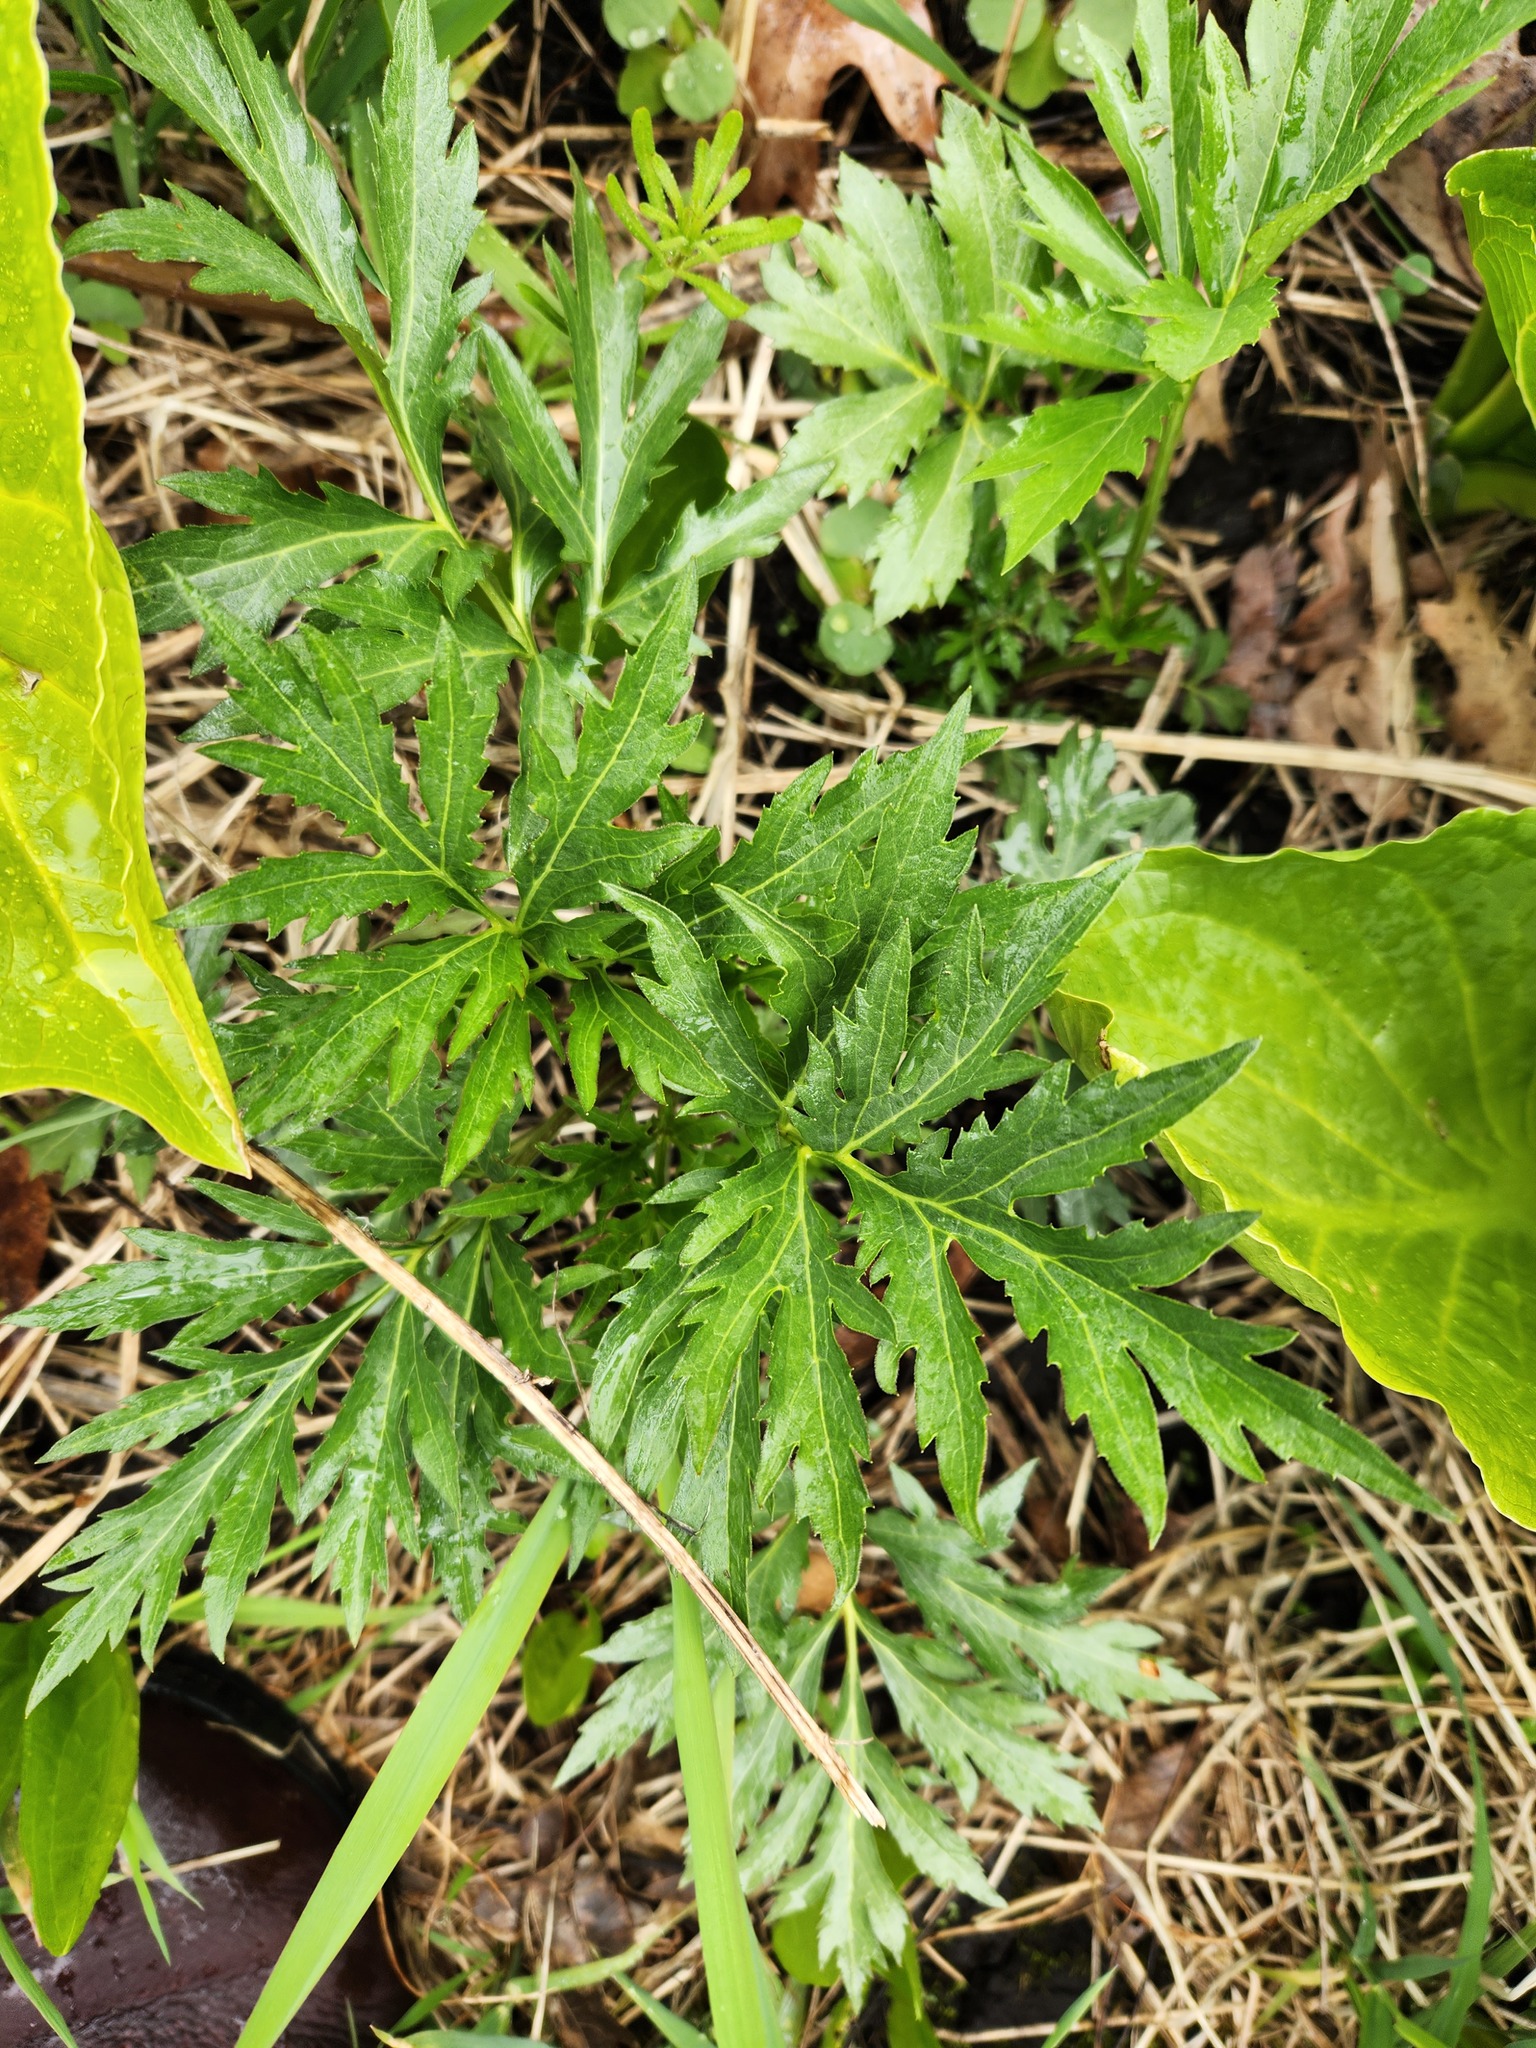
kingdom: Plantae
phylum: Tracheophyta
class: Magnoliopsida
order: Asterales
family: Asteraceae
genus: Rudbeckia
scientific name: Rudbeckia laciniata
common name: Coneflower
